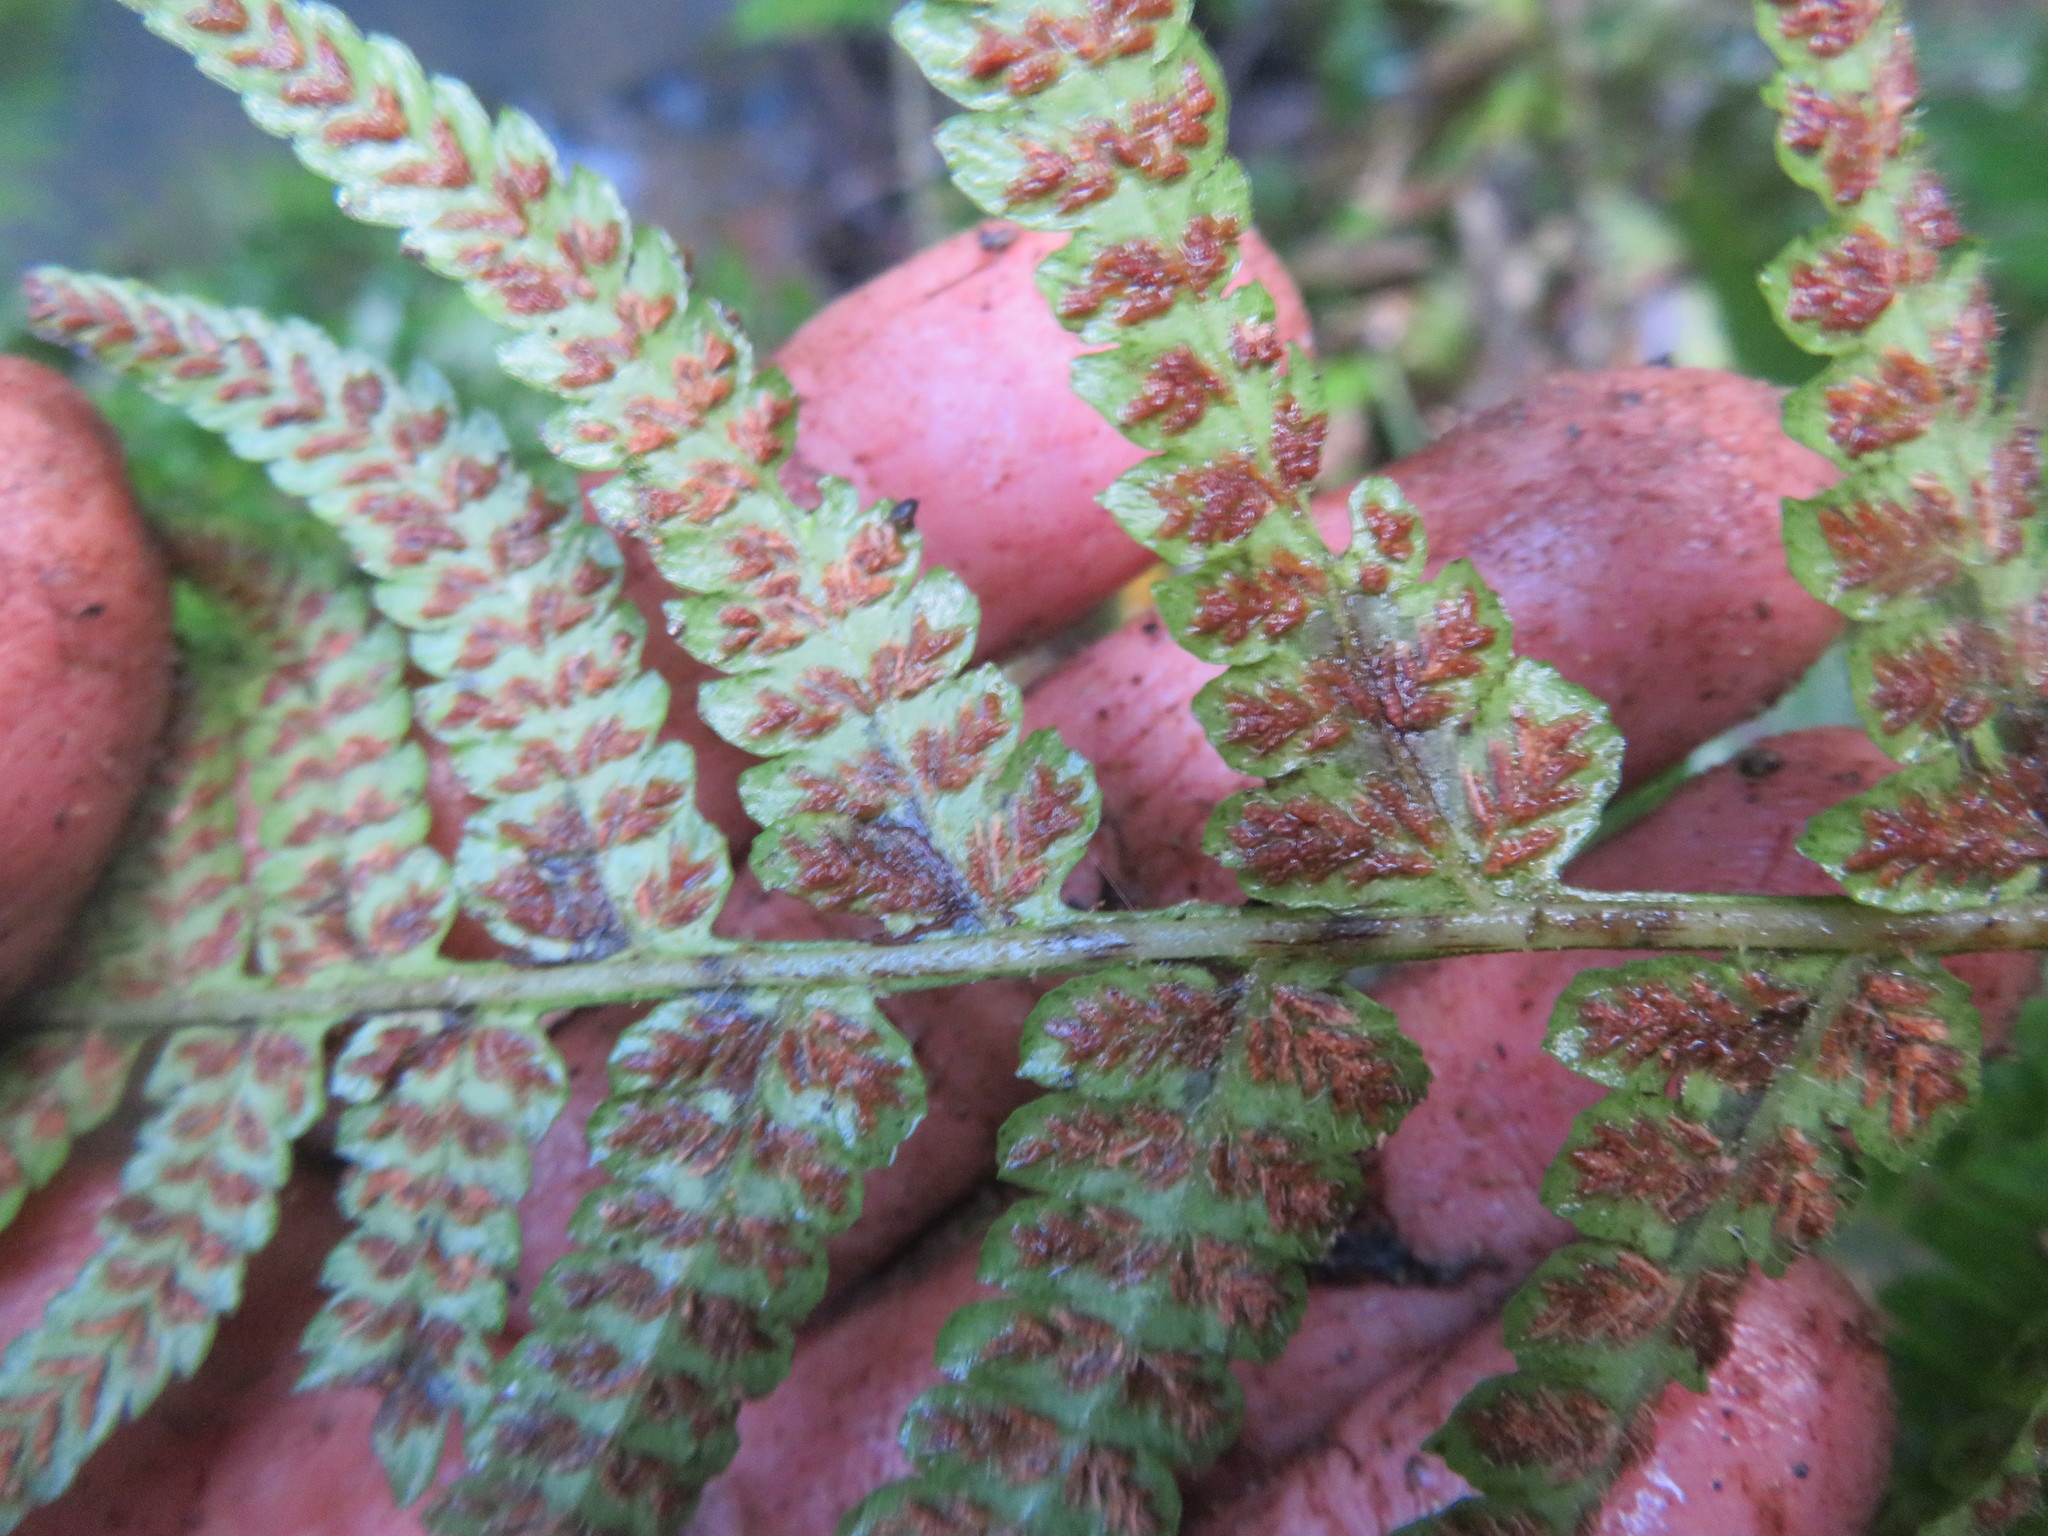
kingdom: Plantae
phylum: Tracheophyta
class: Polypodiopsida
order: Polypodiales
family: Athyriaceae
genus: Deparia
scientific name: Deparia petersenii
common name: Japanese false spleenwort
